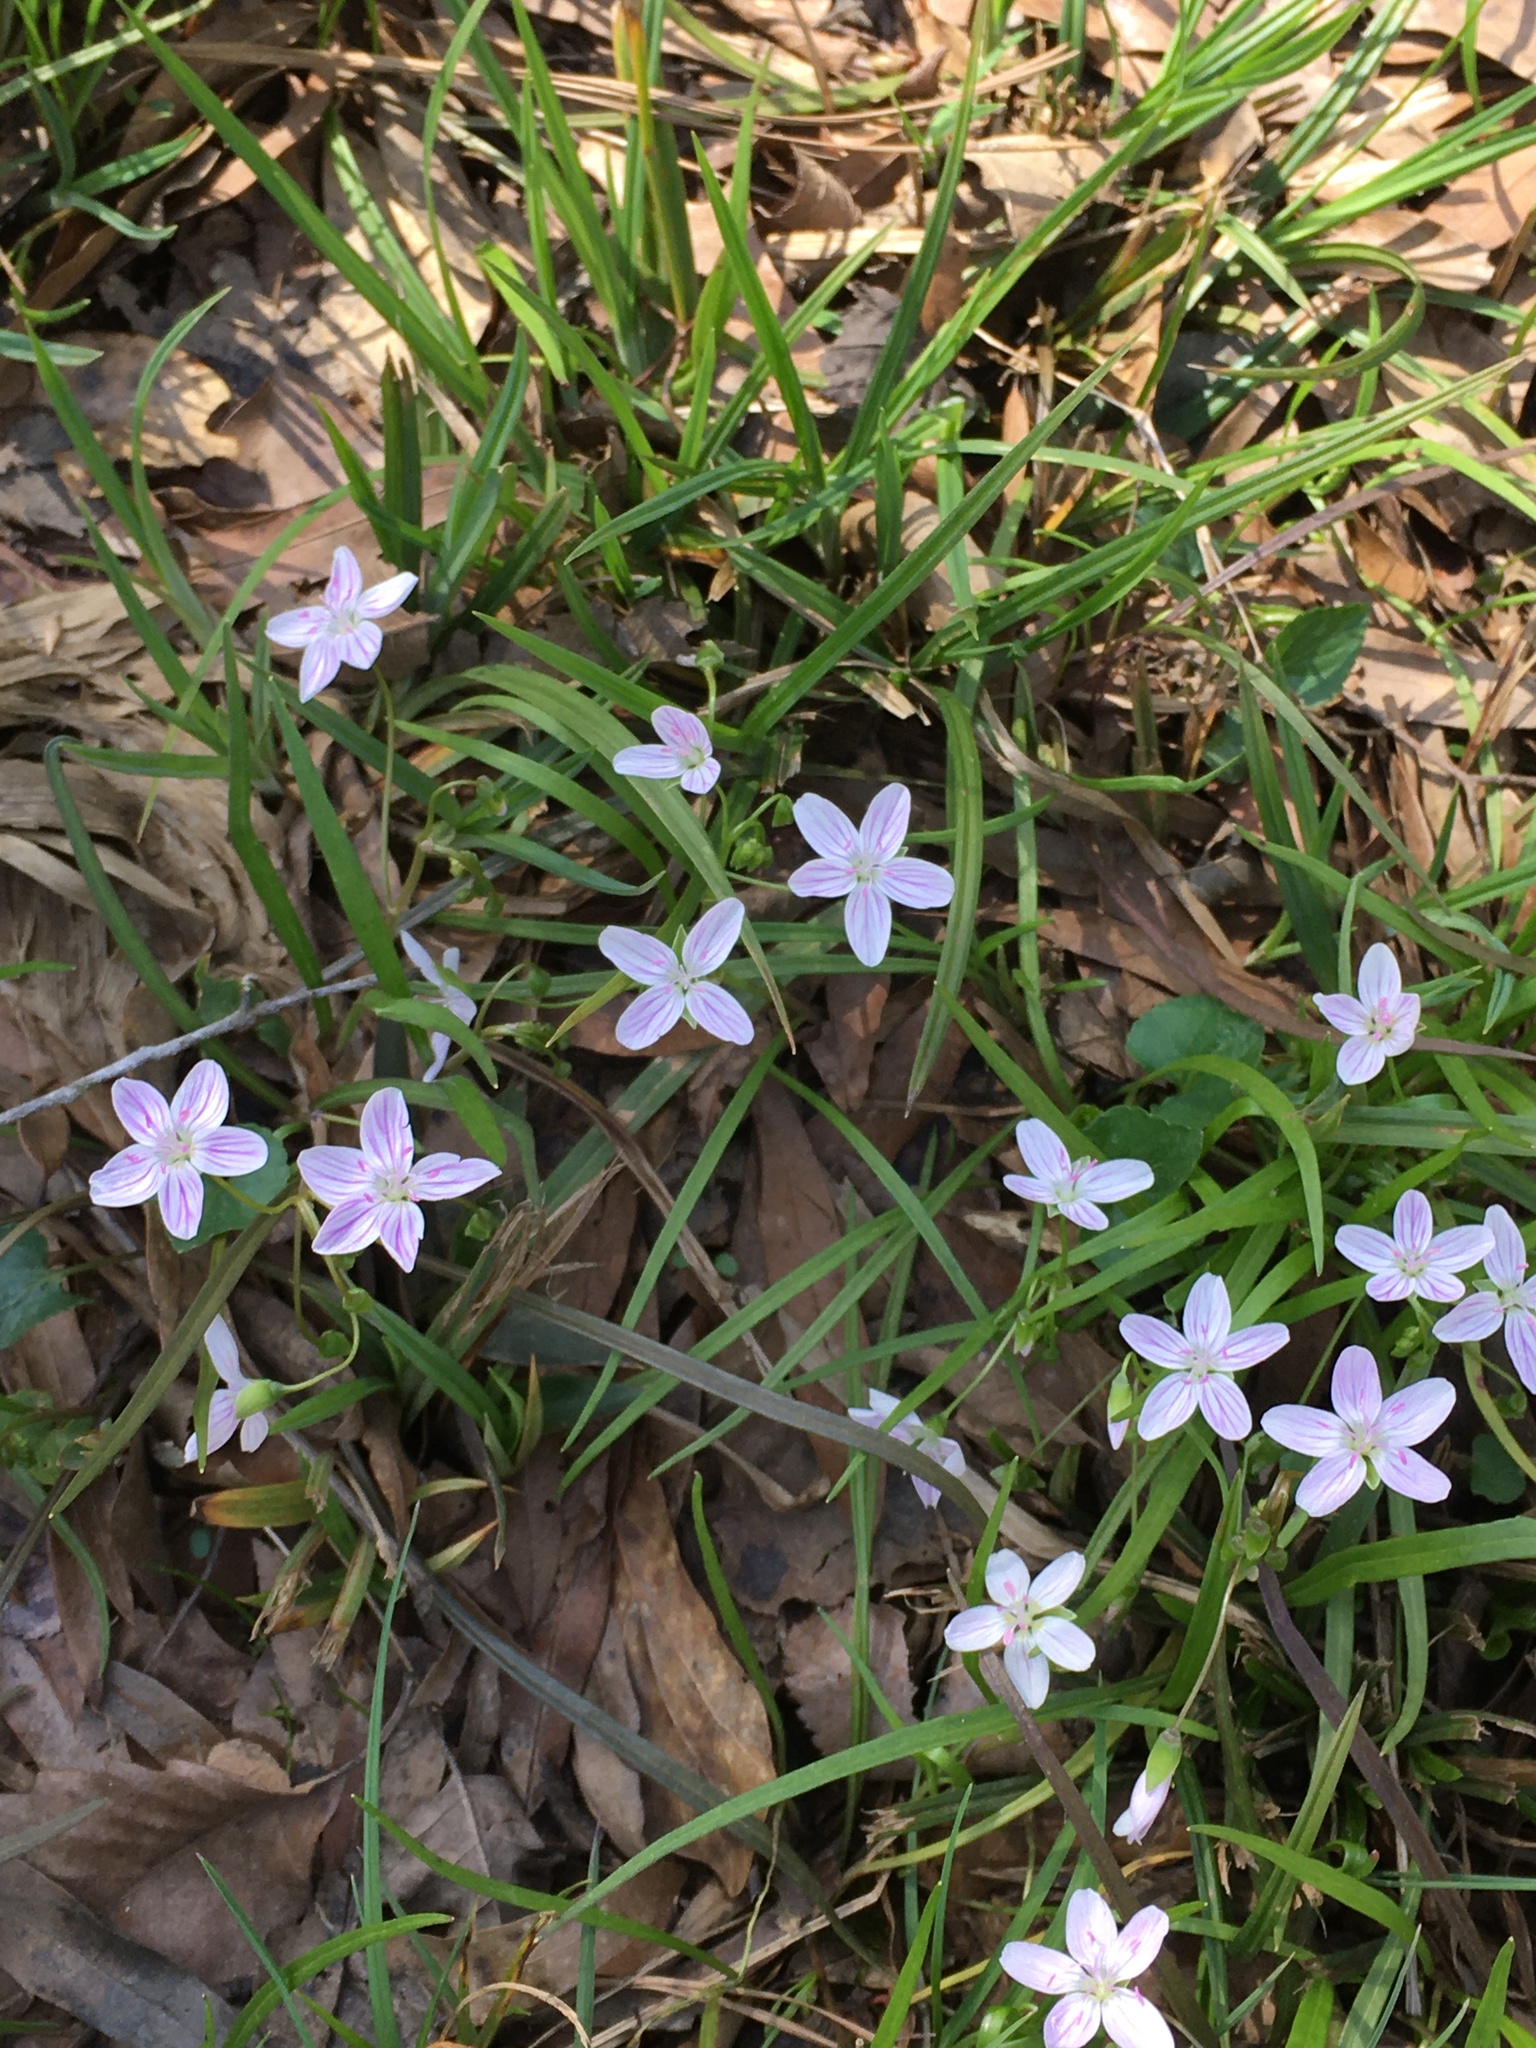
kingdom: Plantae
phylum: Tracheophyta
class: Magnoliopsida
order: Caryophyllales
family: Montiaceae
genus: Claytonia
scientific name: Claytonia virginica
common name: Virginia springbeauty
